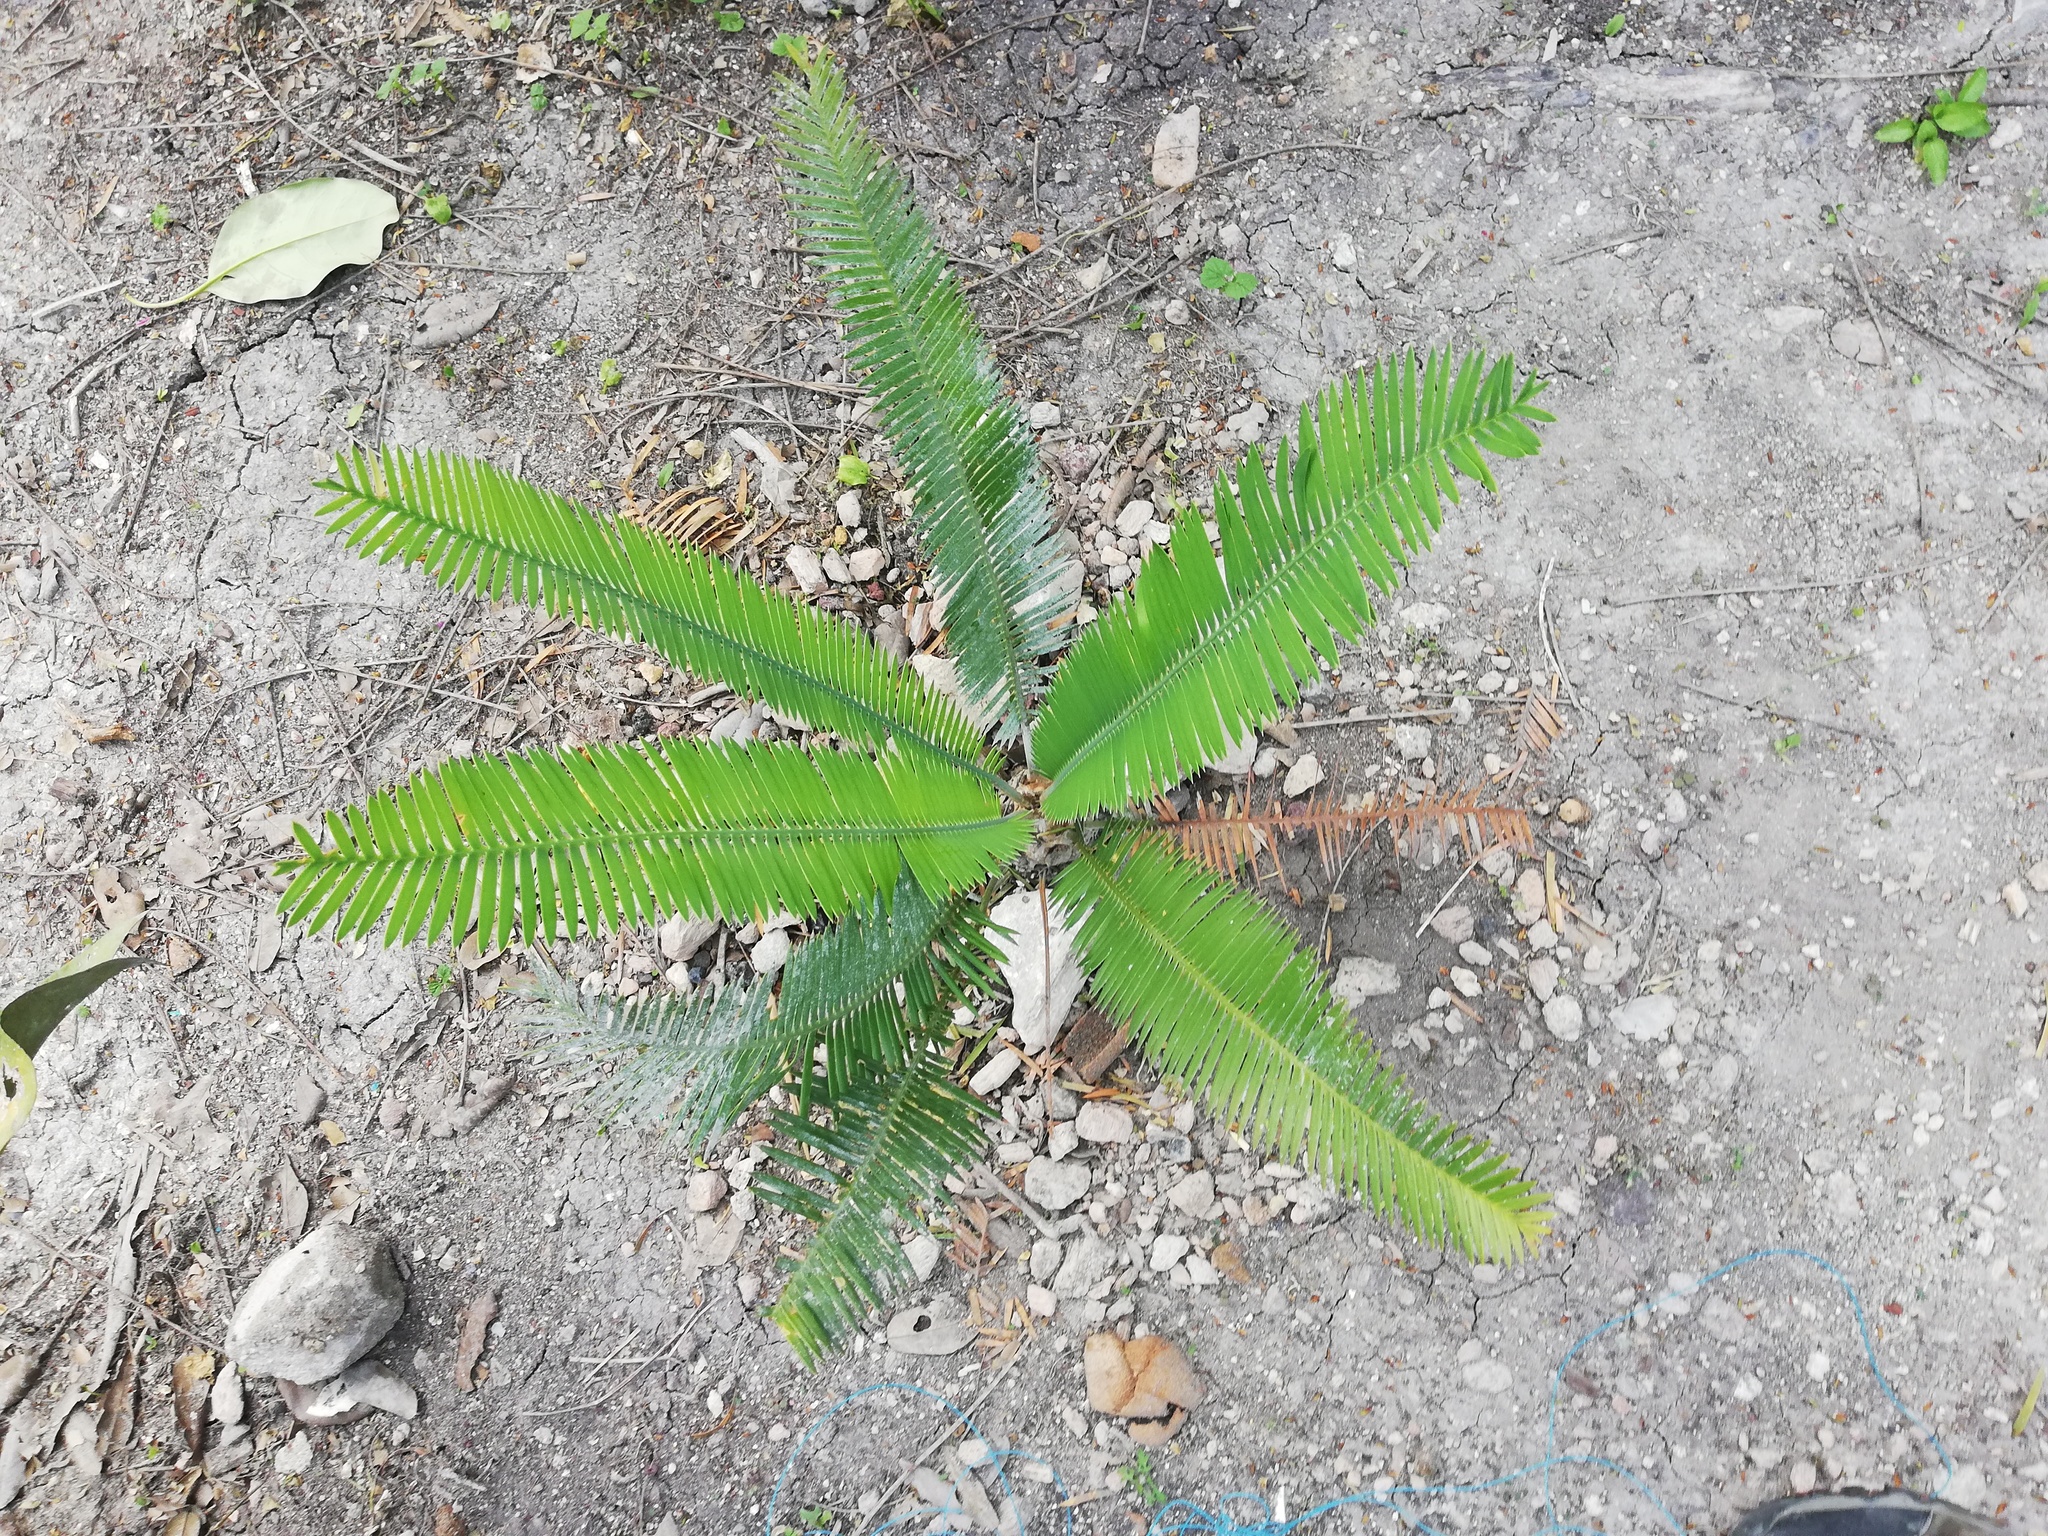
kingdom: Plantae
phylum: Tracheophyta
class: Cycadopsida
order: Cycadales
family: Zamiaceae
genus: Dioon
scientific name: Dioon edule
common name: Edible-seed cycas
